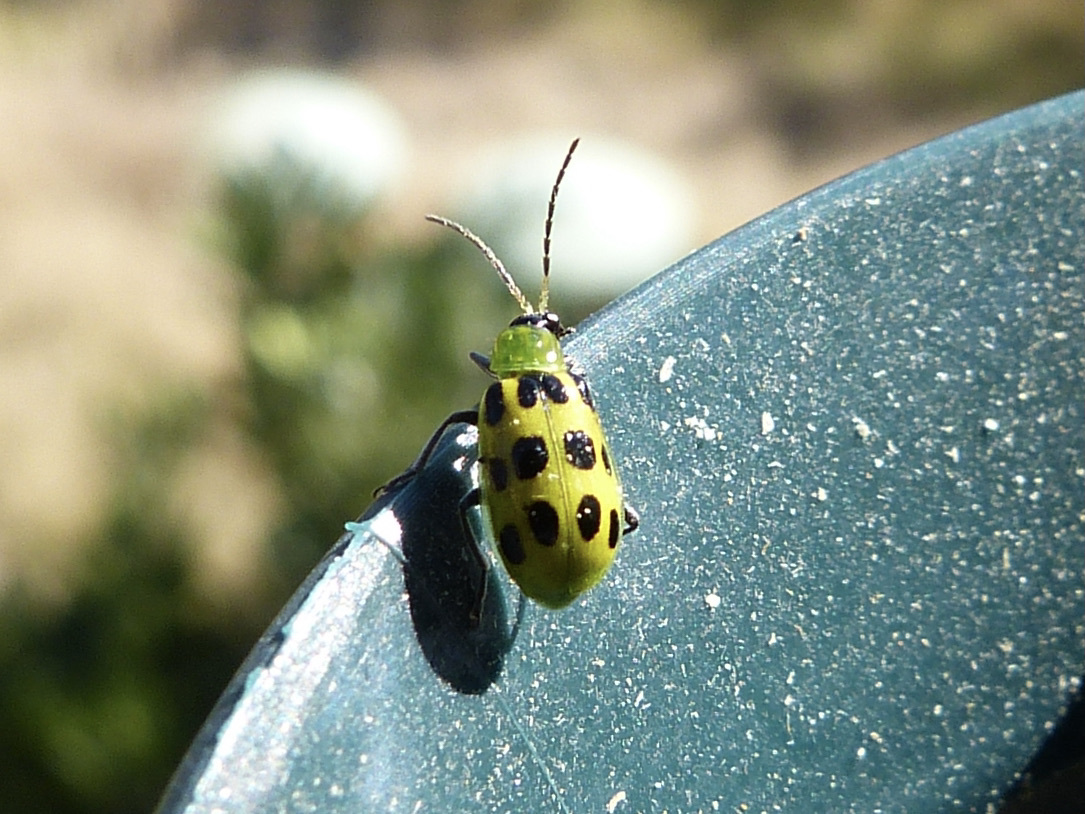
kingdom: Animalia
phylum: Arthropoda
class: Insecta
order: Coleoptera
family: Chrysomelidae
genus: Diabrotica
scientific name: Diabrotica undecimpunctata
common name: Spotted cucumber beetle
